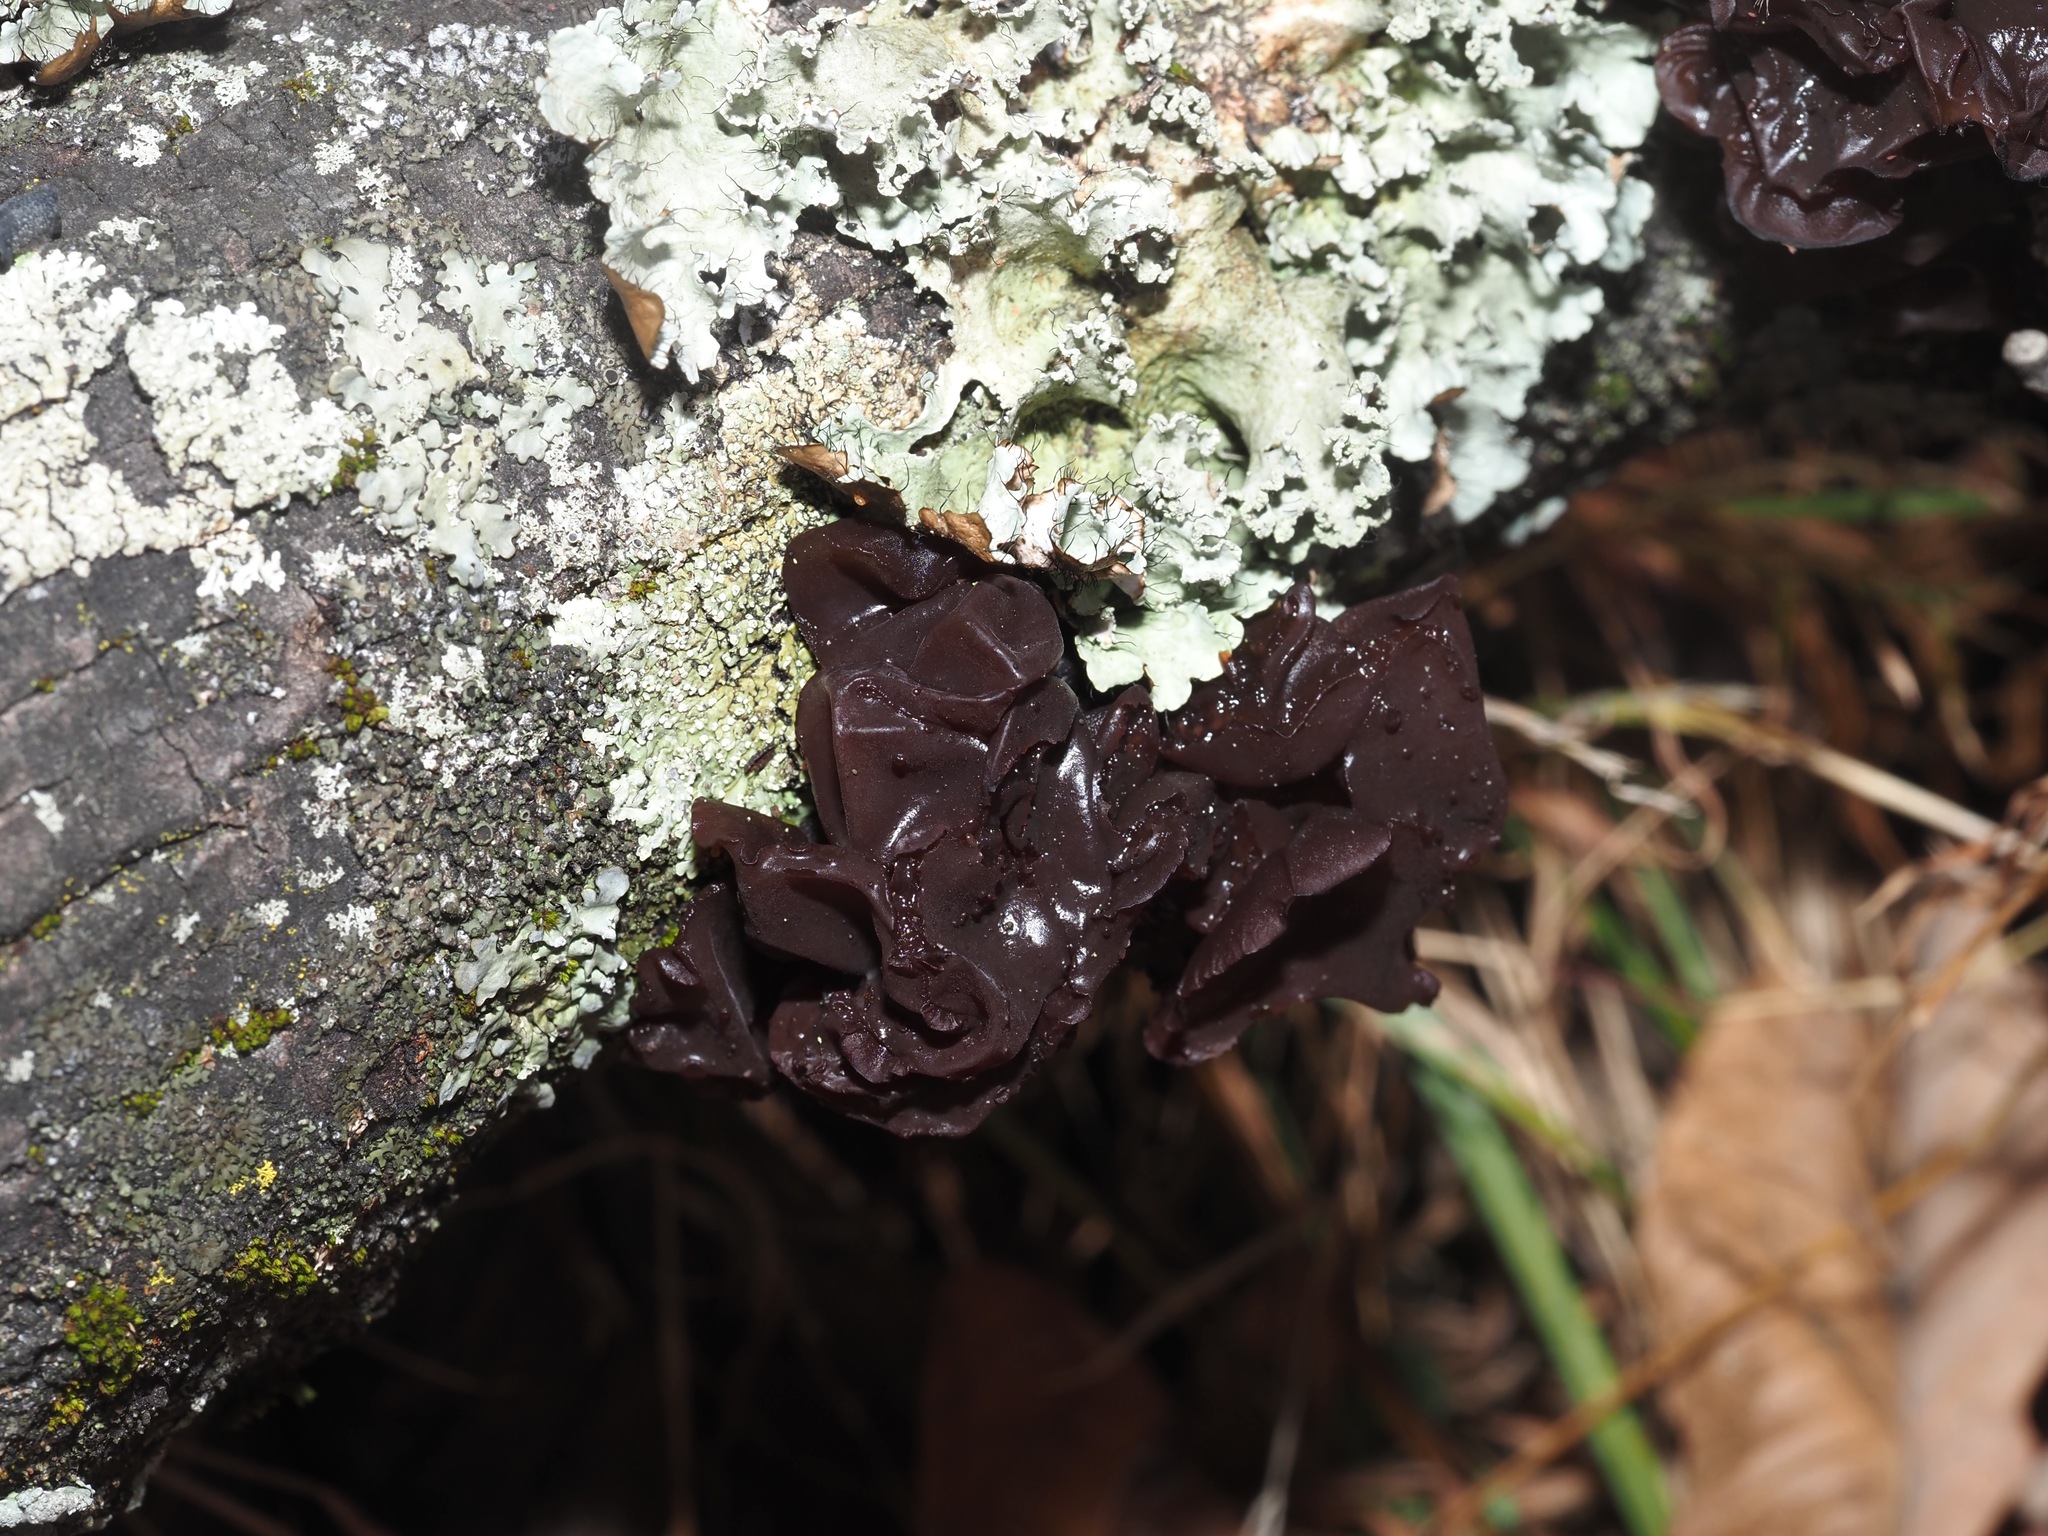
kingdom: Fungi
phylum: Basidiomycota
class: Agaricomycetes
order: Auriculariales
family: Auriculariaceae
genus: Exidia
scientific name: Exidia
